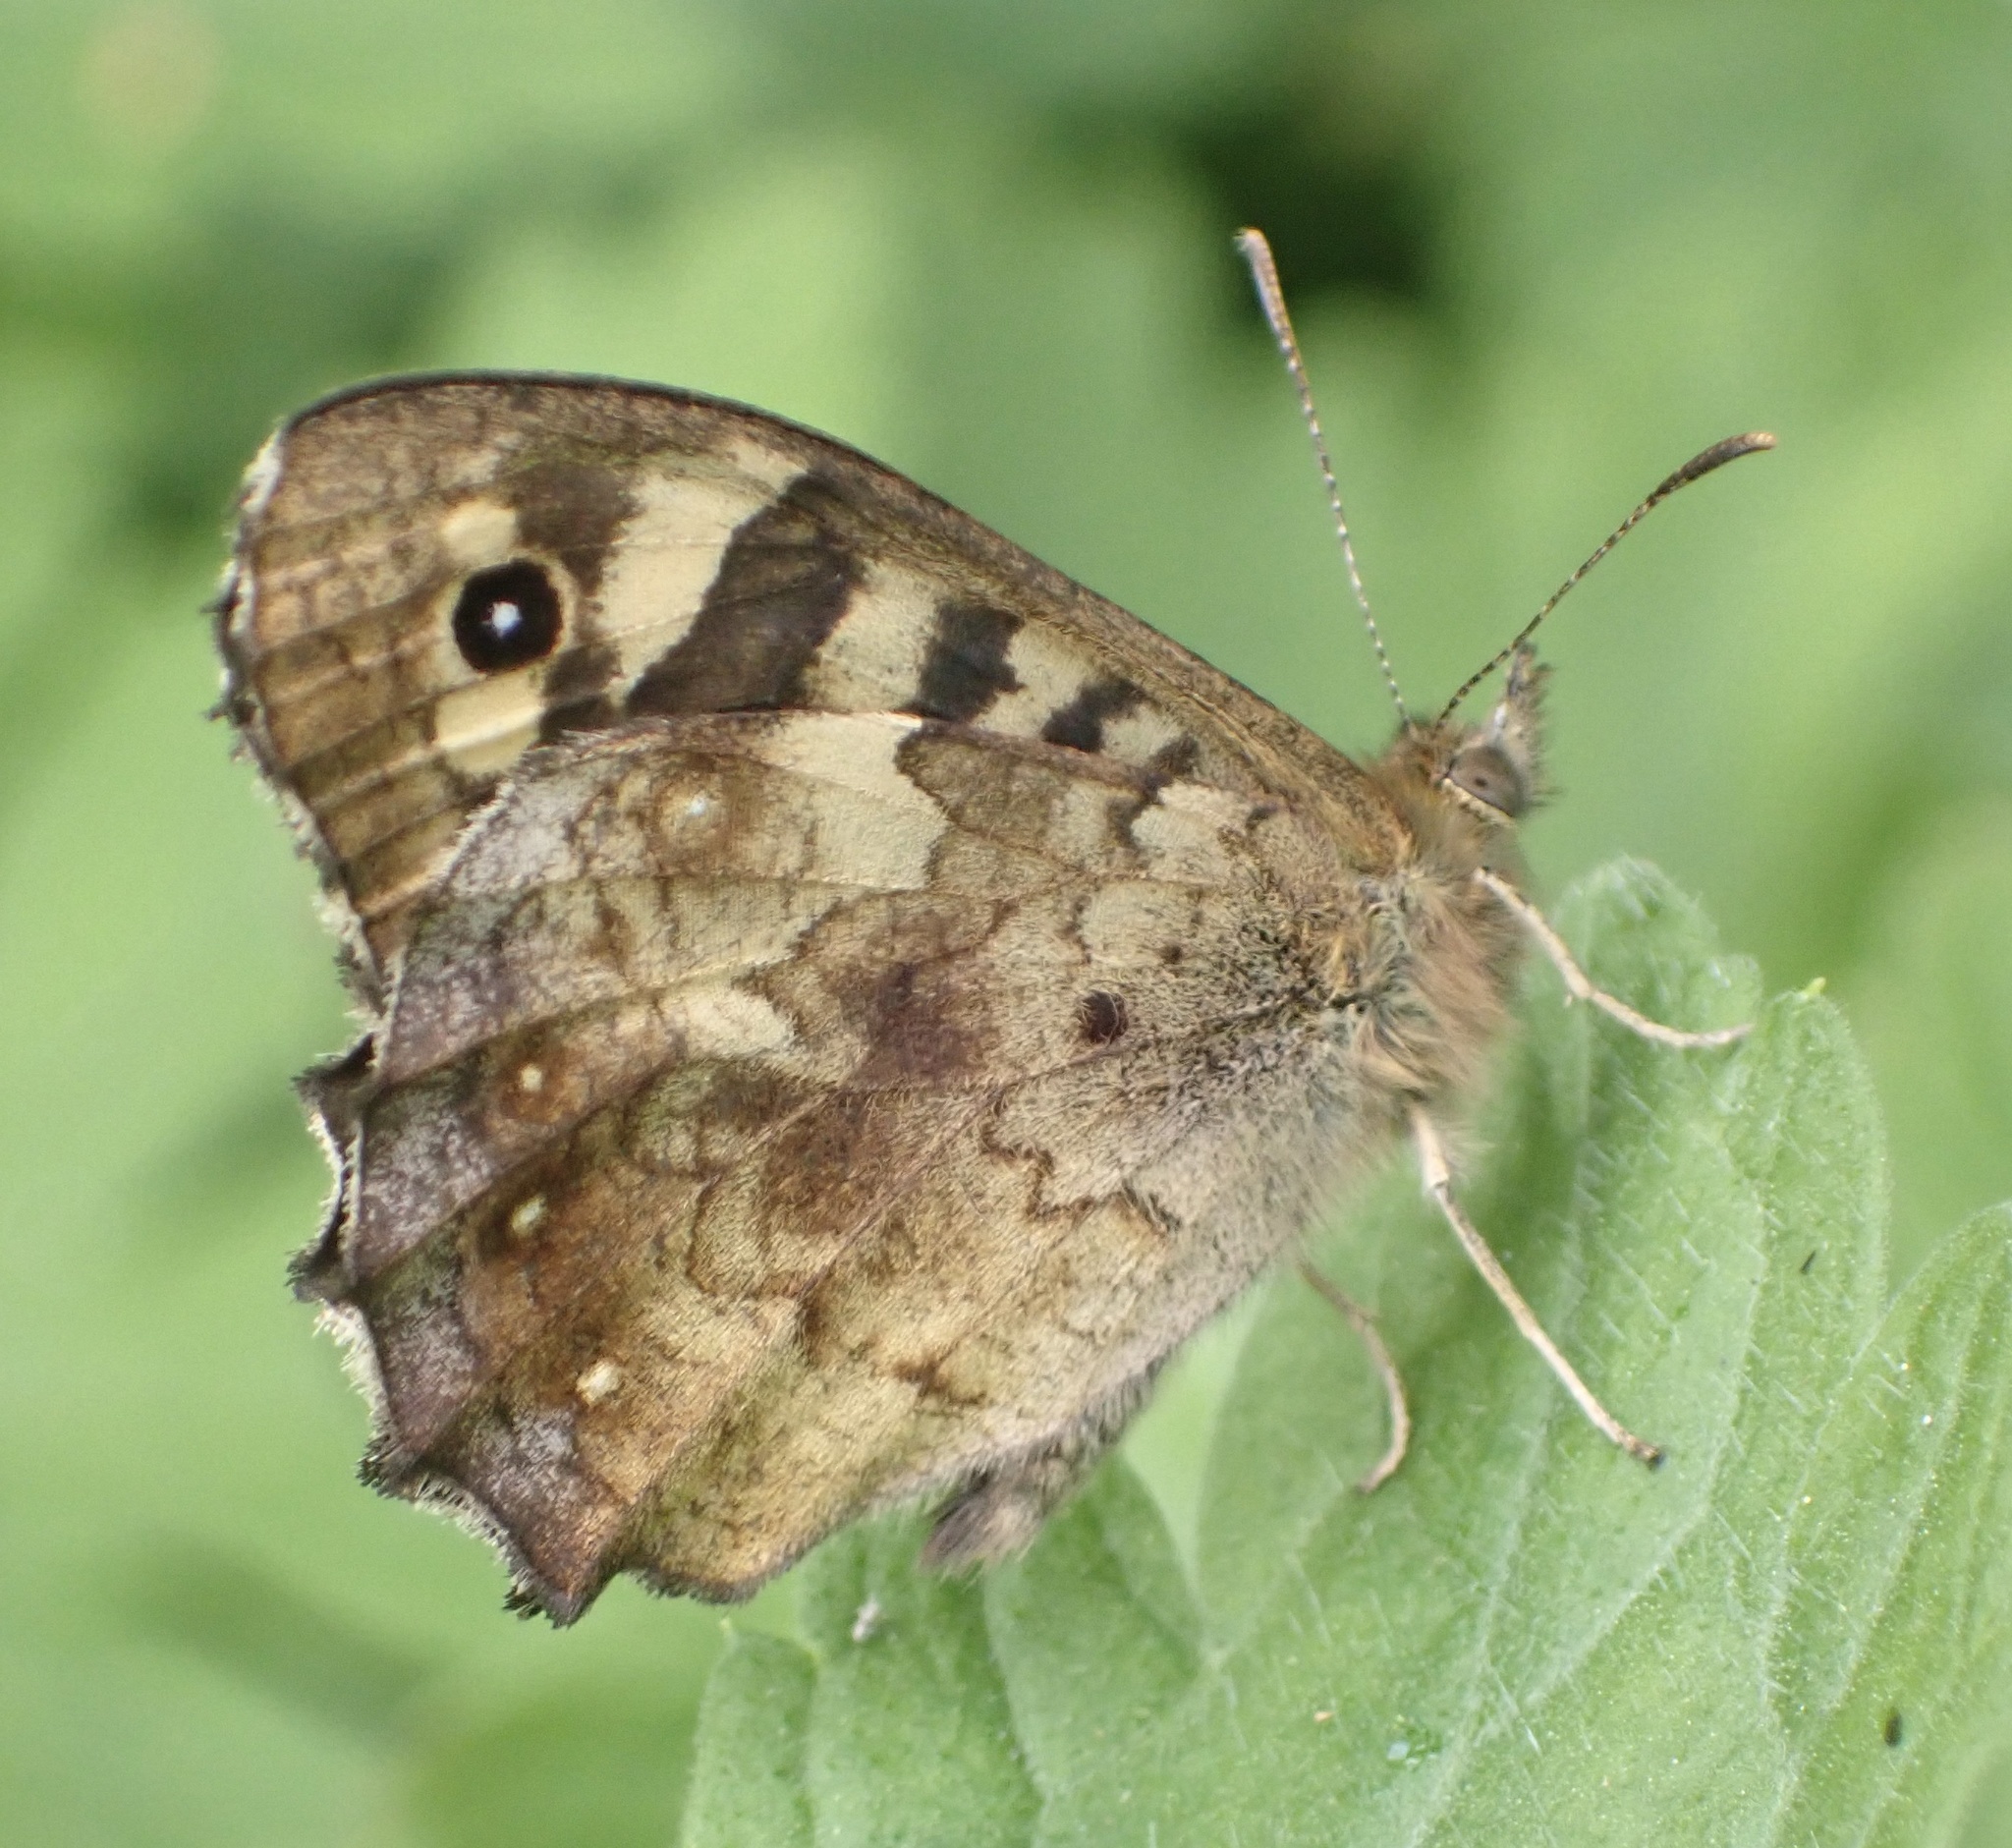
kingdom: Animalia
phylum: Arthropoda
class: Insecta
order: Lepidoptera
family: Nymphalidae
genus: Pararge
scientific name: Pararge aegeria
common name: Speckled wood
